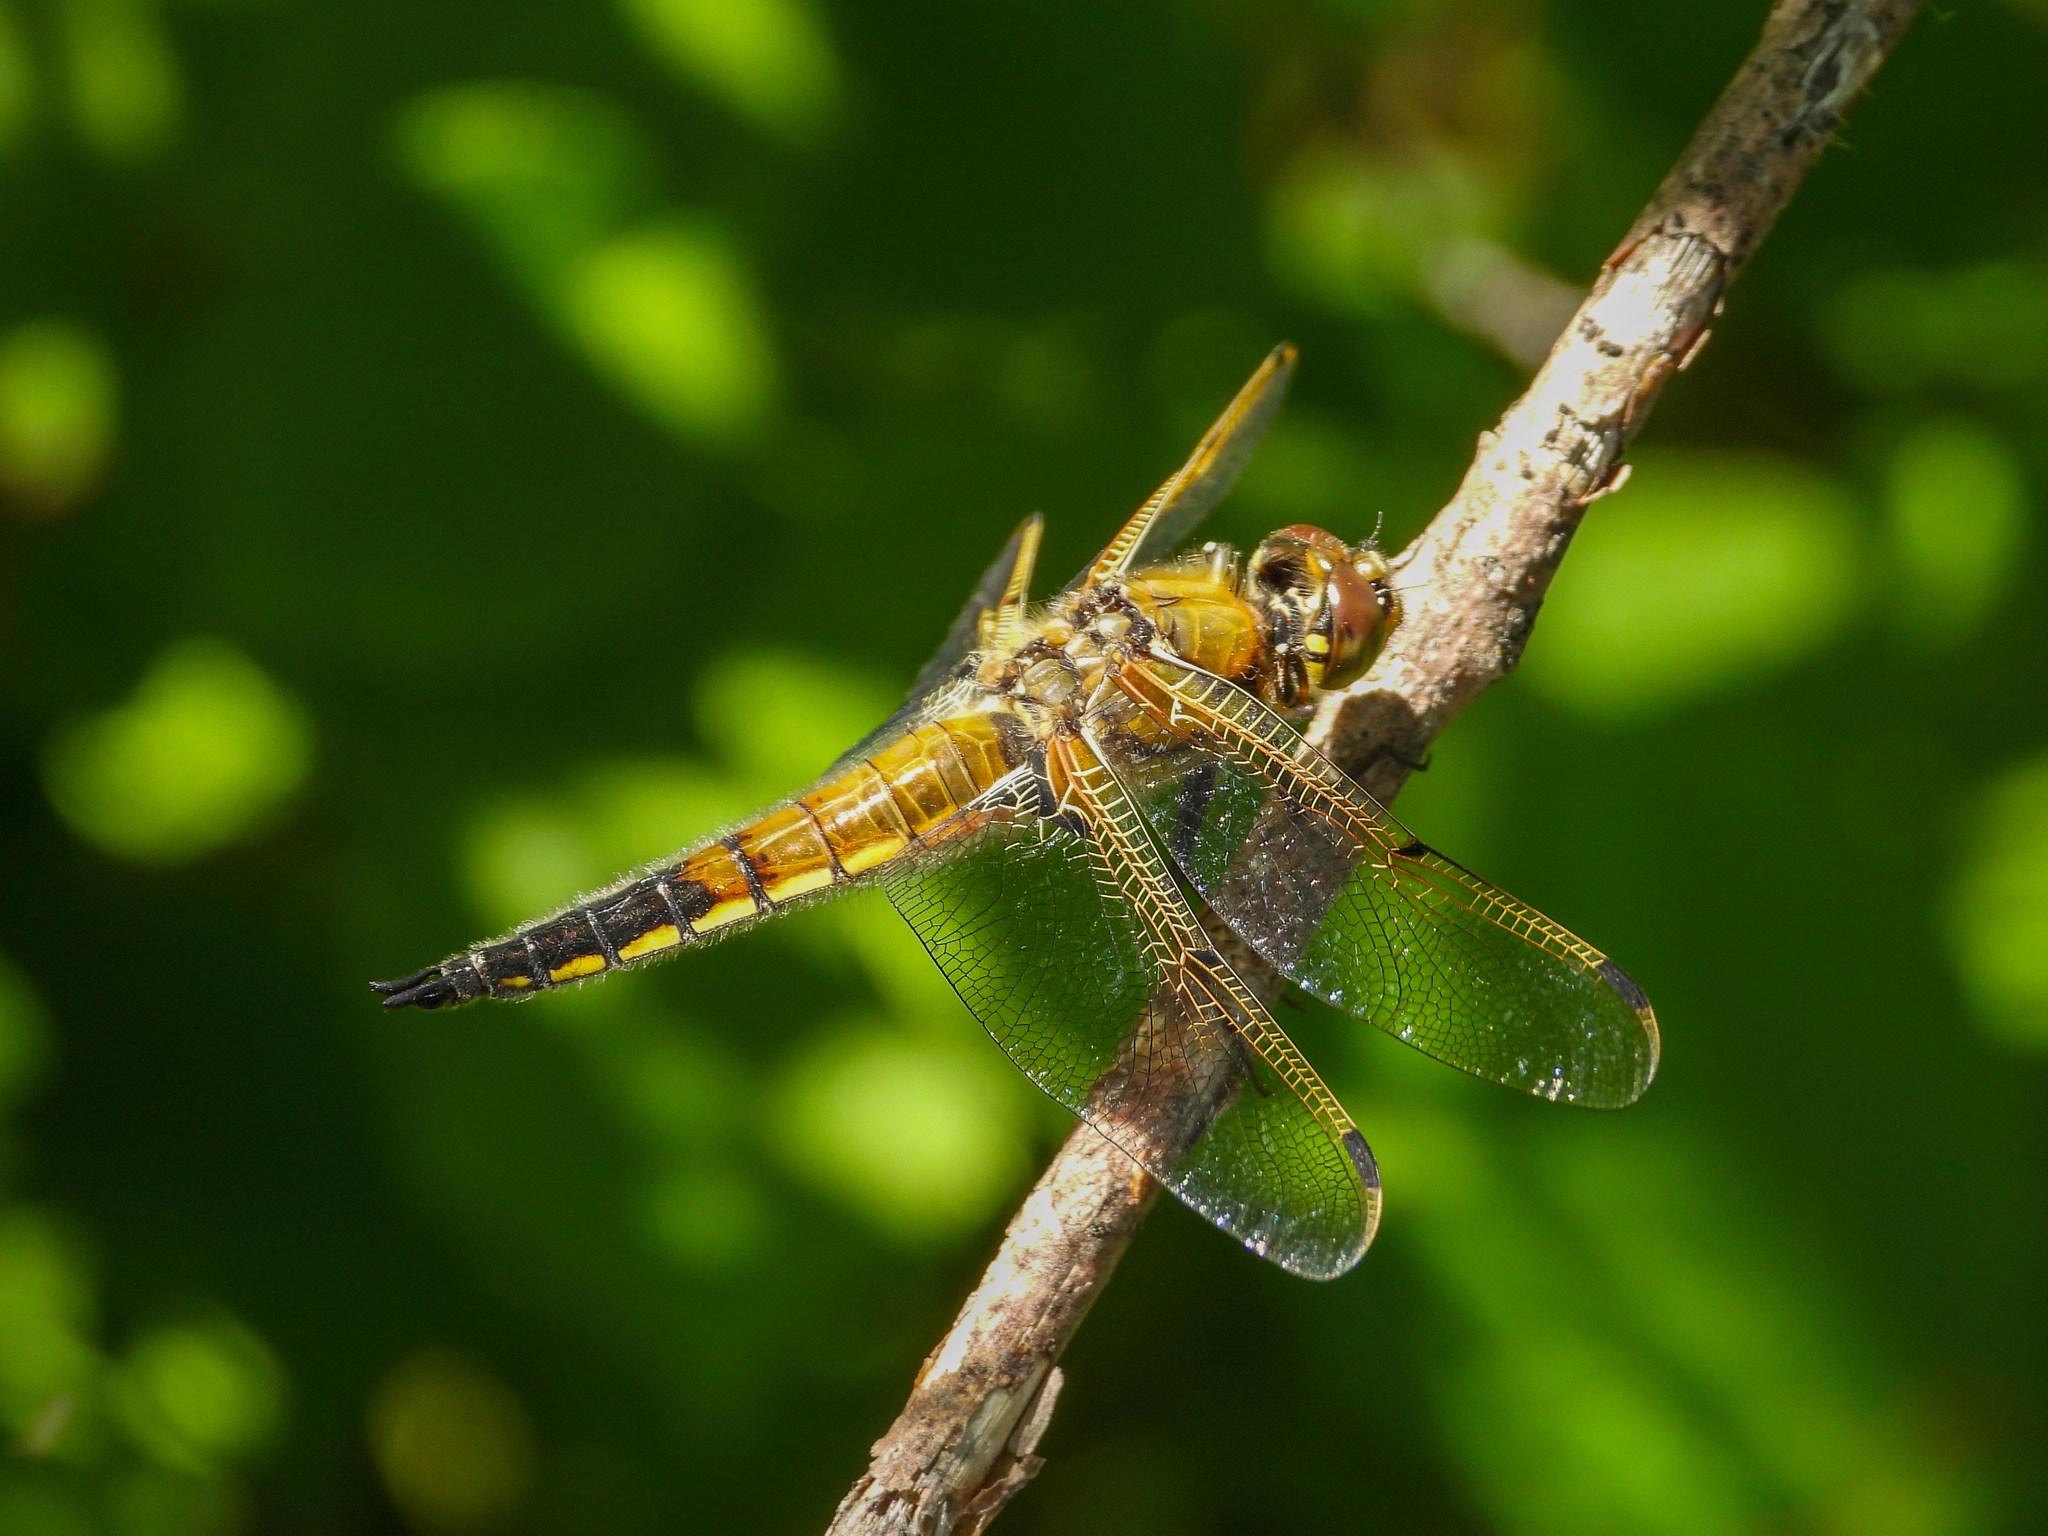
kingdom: Animalia
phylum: Arthropoda
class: Insecta
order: Odonata
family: Libellulidae
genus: Libellula
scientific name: Libellula quadrimaculata
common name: Four-spotted chaser
